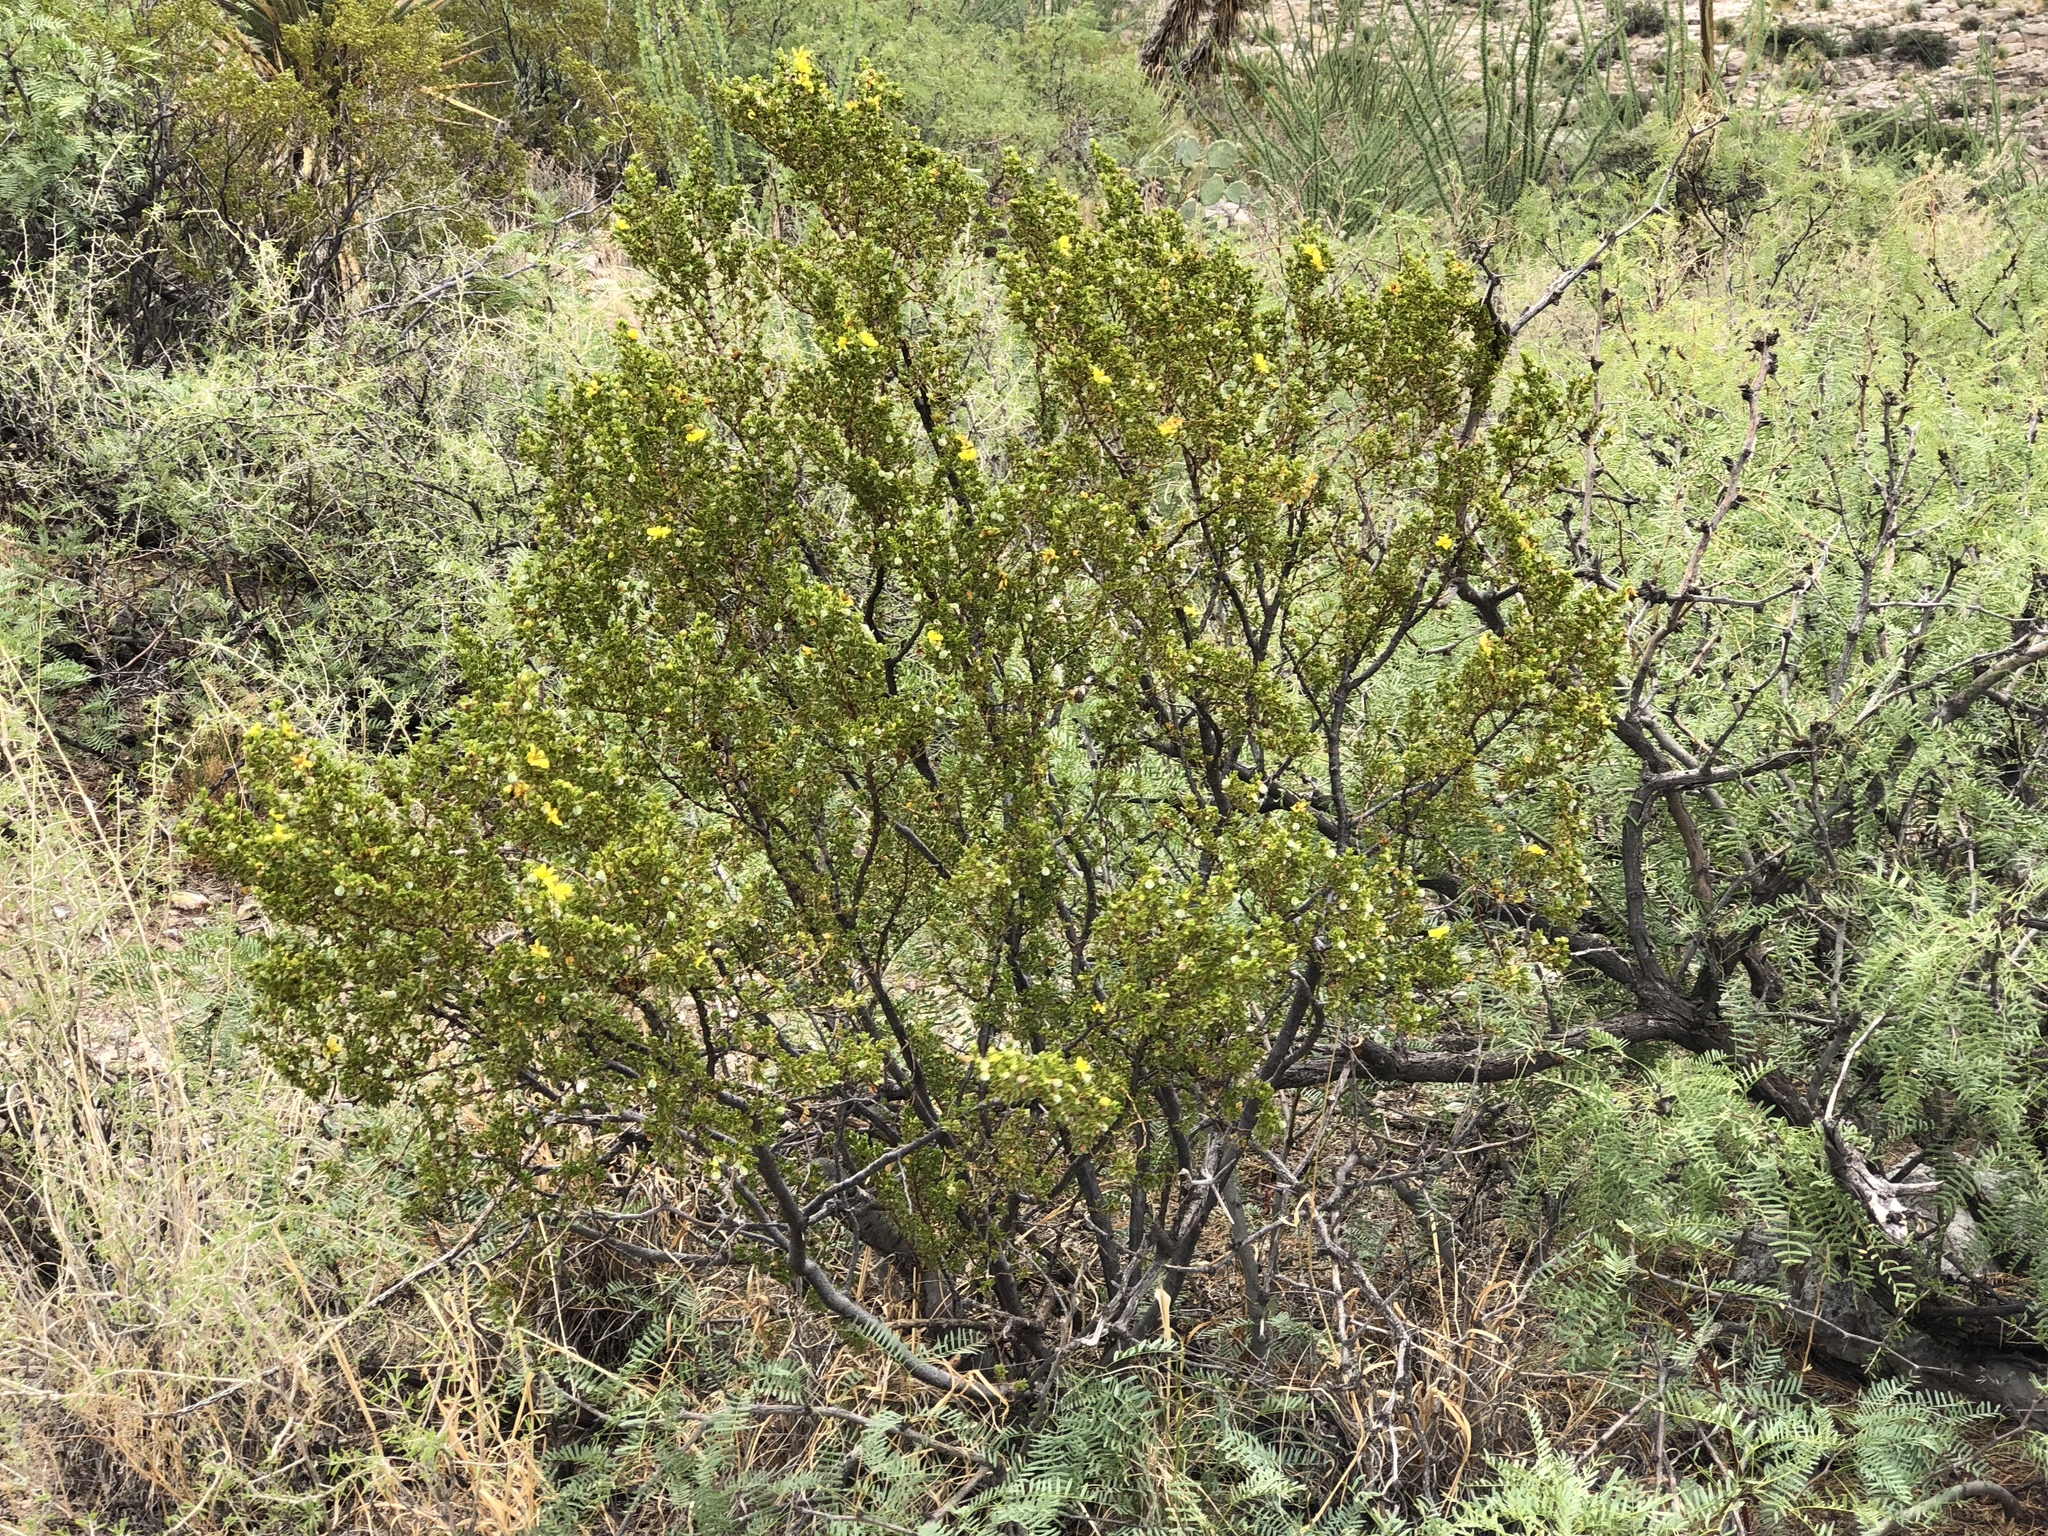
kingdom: Plantae
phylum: Tracheophyta
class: Magnoliopsida
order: Zygophyllales
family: Zygophyllaceae
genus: Larrea
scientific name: Larrea tridentata
